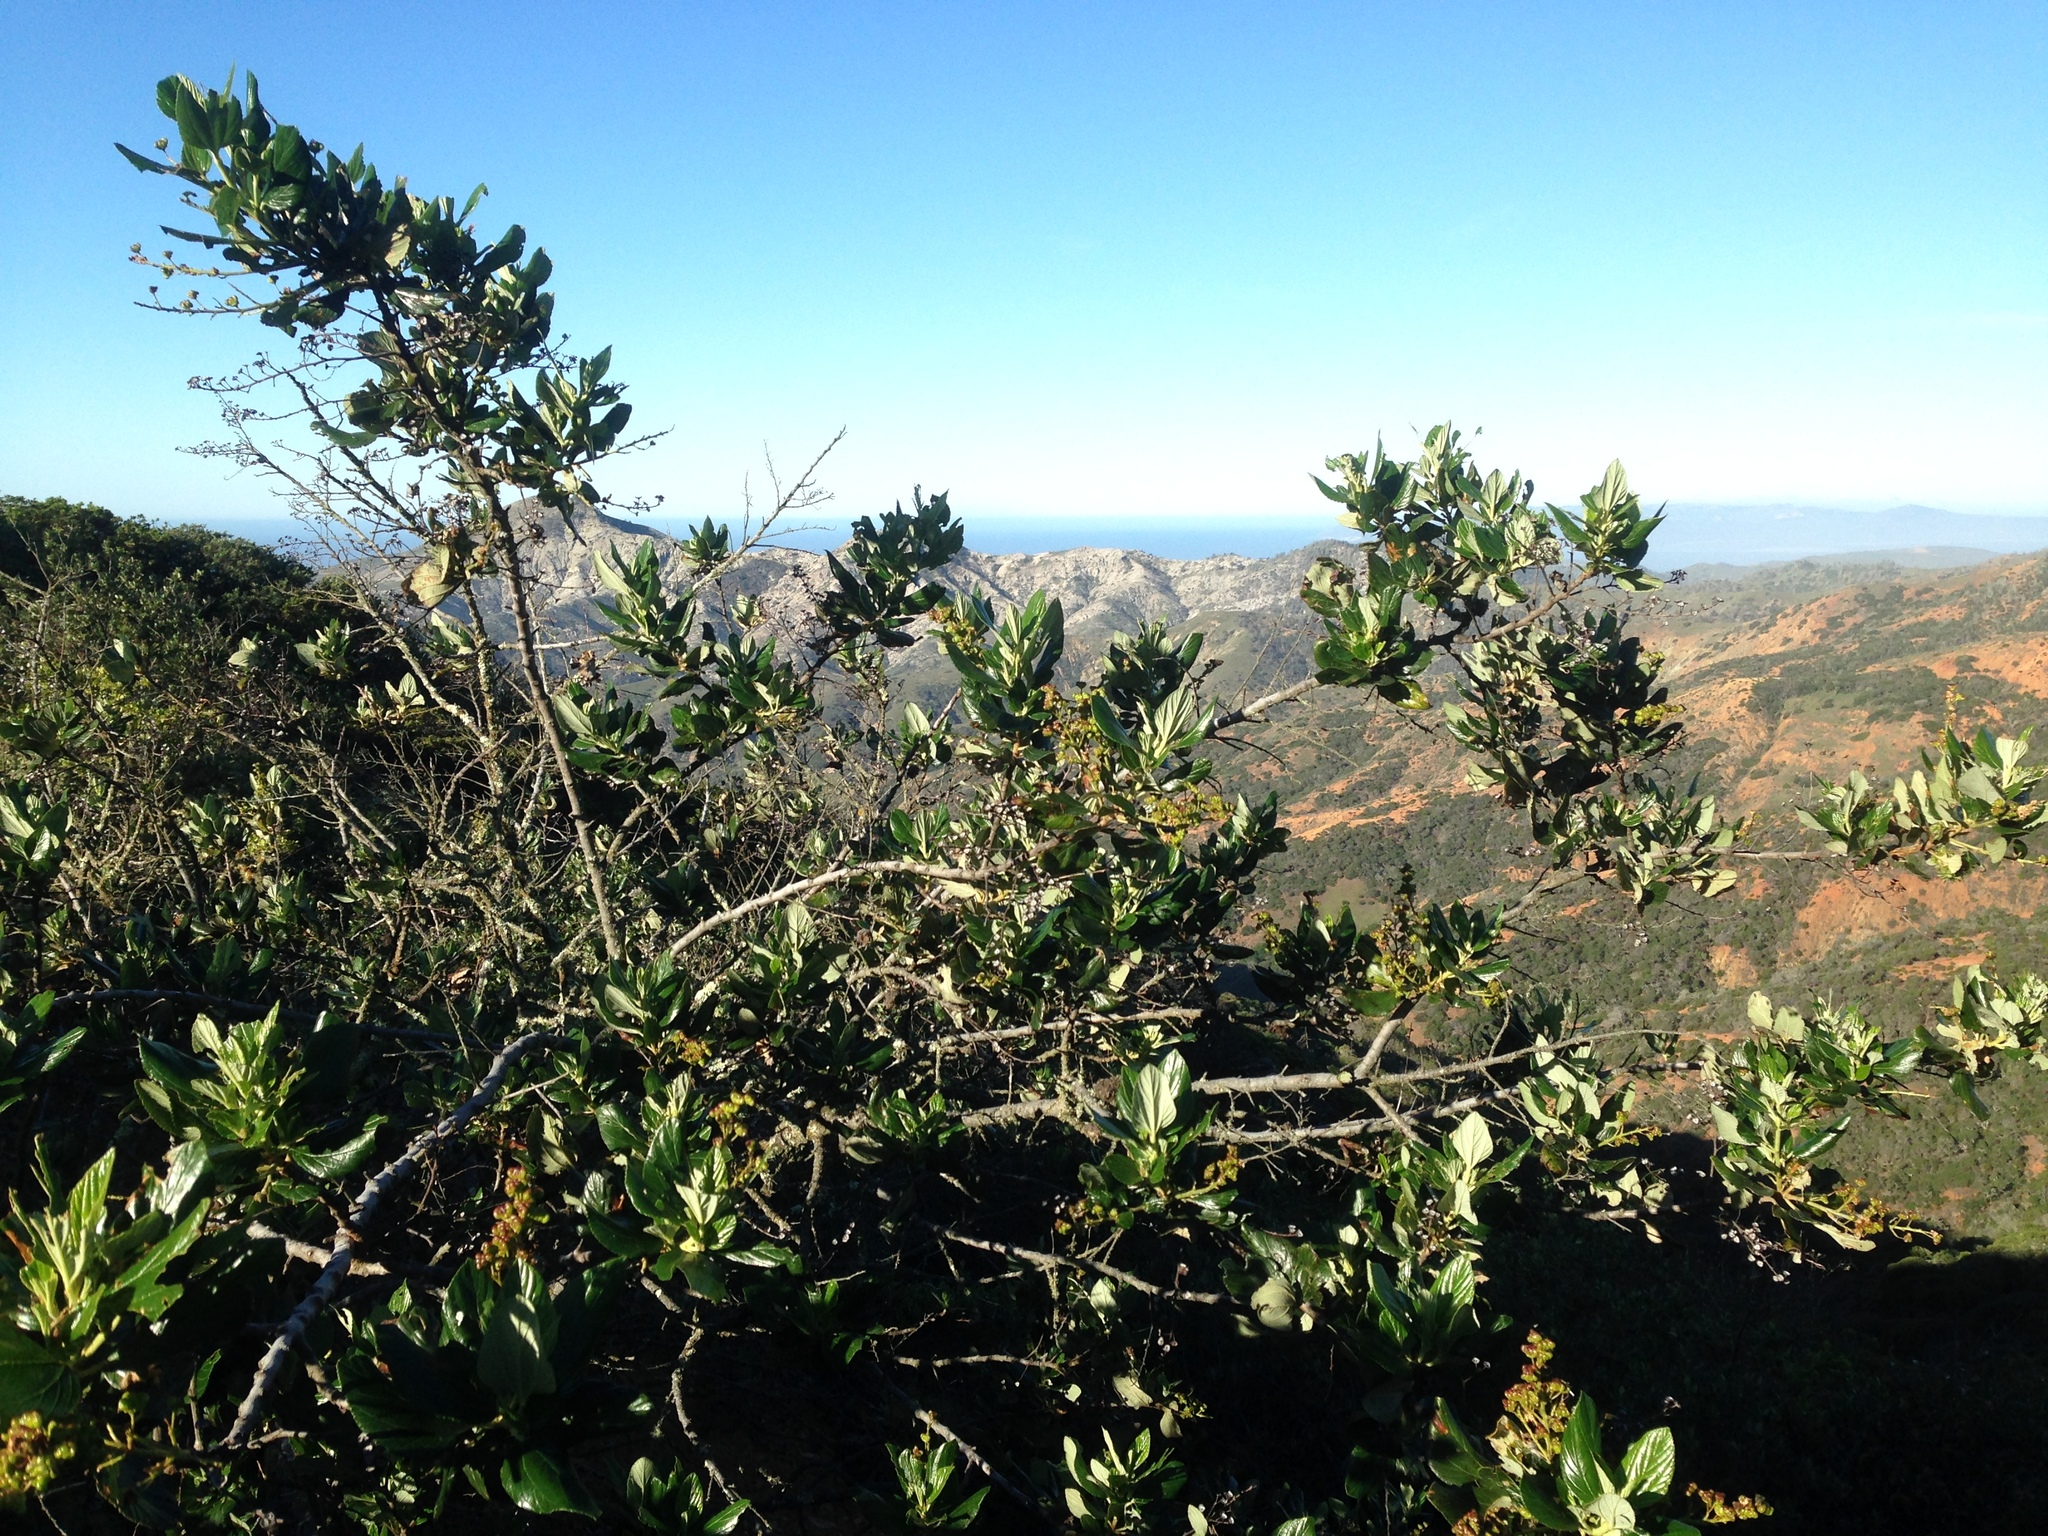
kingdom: Plantae
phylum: Tracheophyta
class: Magnoliopsida
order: Rosales
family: Rhamnaceae
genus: Ceanothus
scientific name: Ceanothus arboreus
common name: Catalina mountain-lilac
